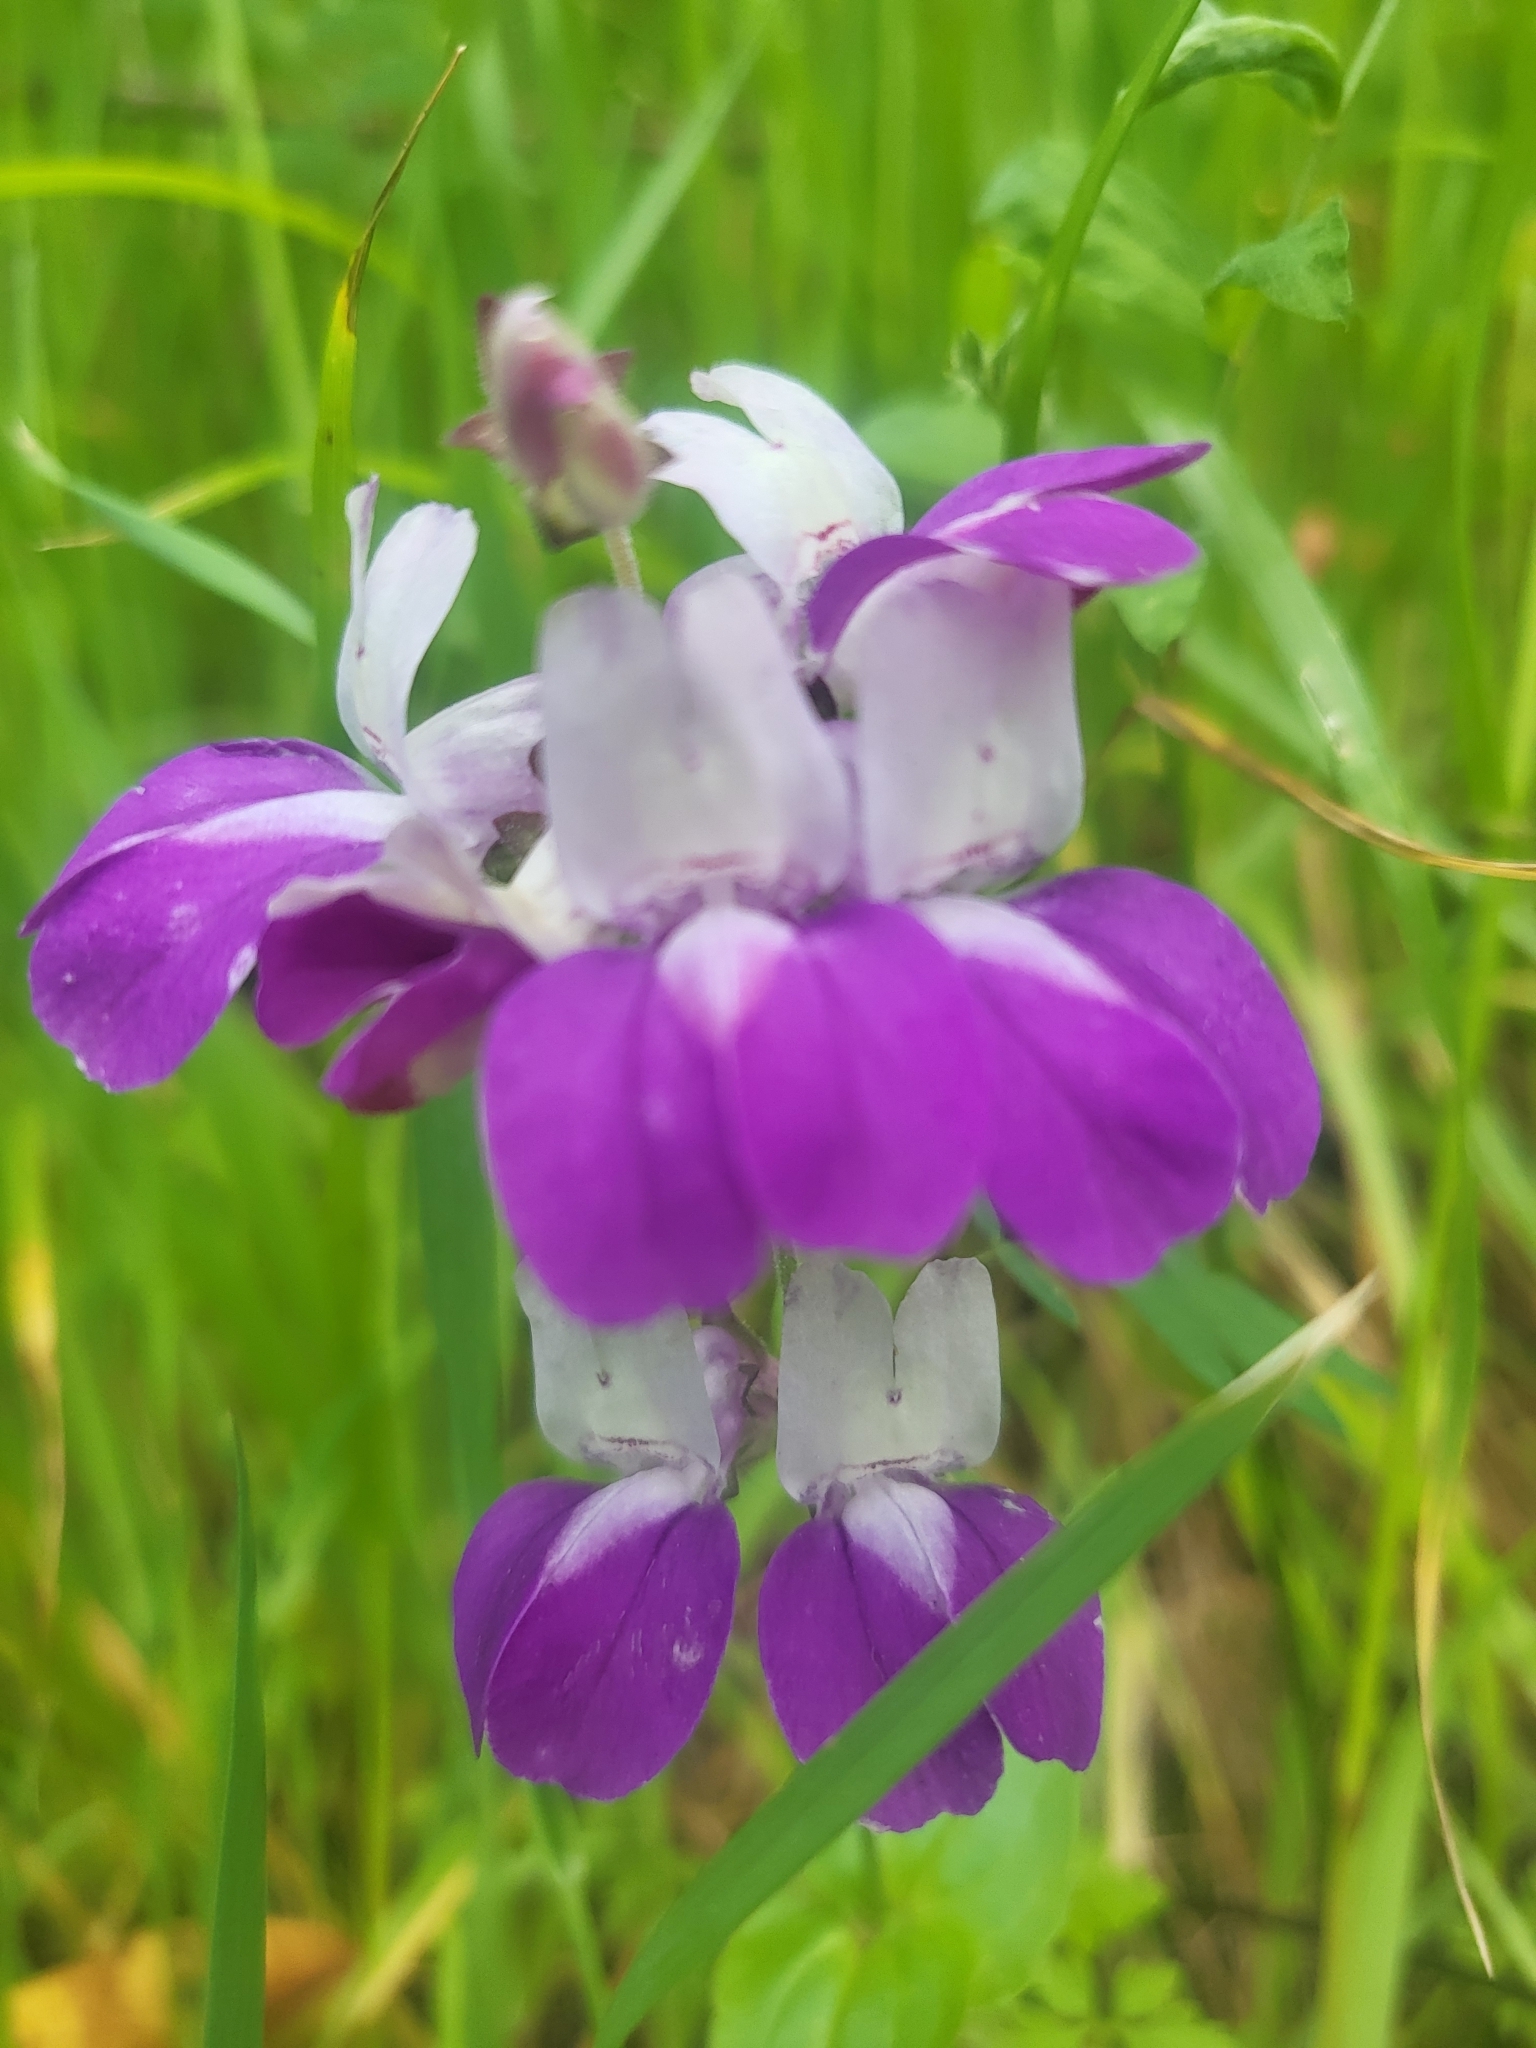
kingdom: Plantae
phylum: Tracheophyta
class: Magnoliopsida
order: Lamiales
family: Plantaginaceae
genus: Collinsia
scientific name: Collinsia heterophylla
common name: Chinese-houses
